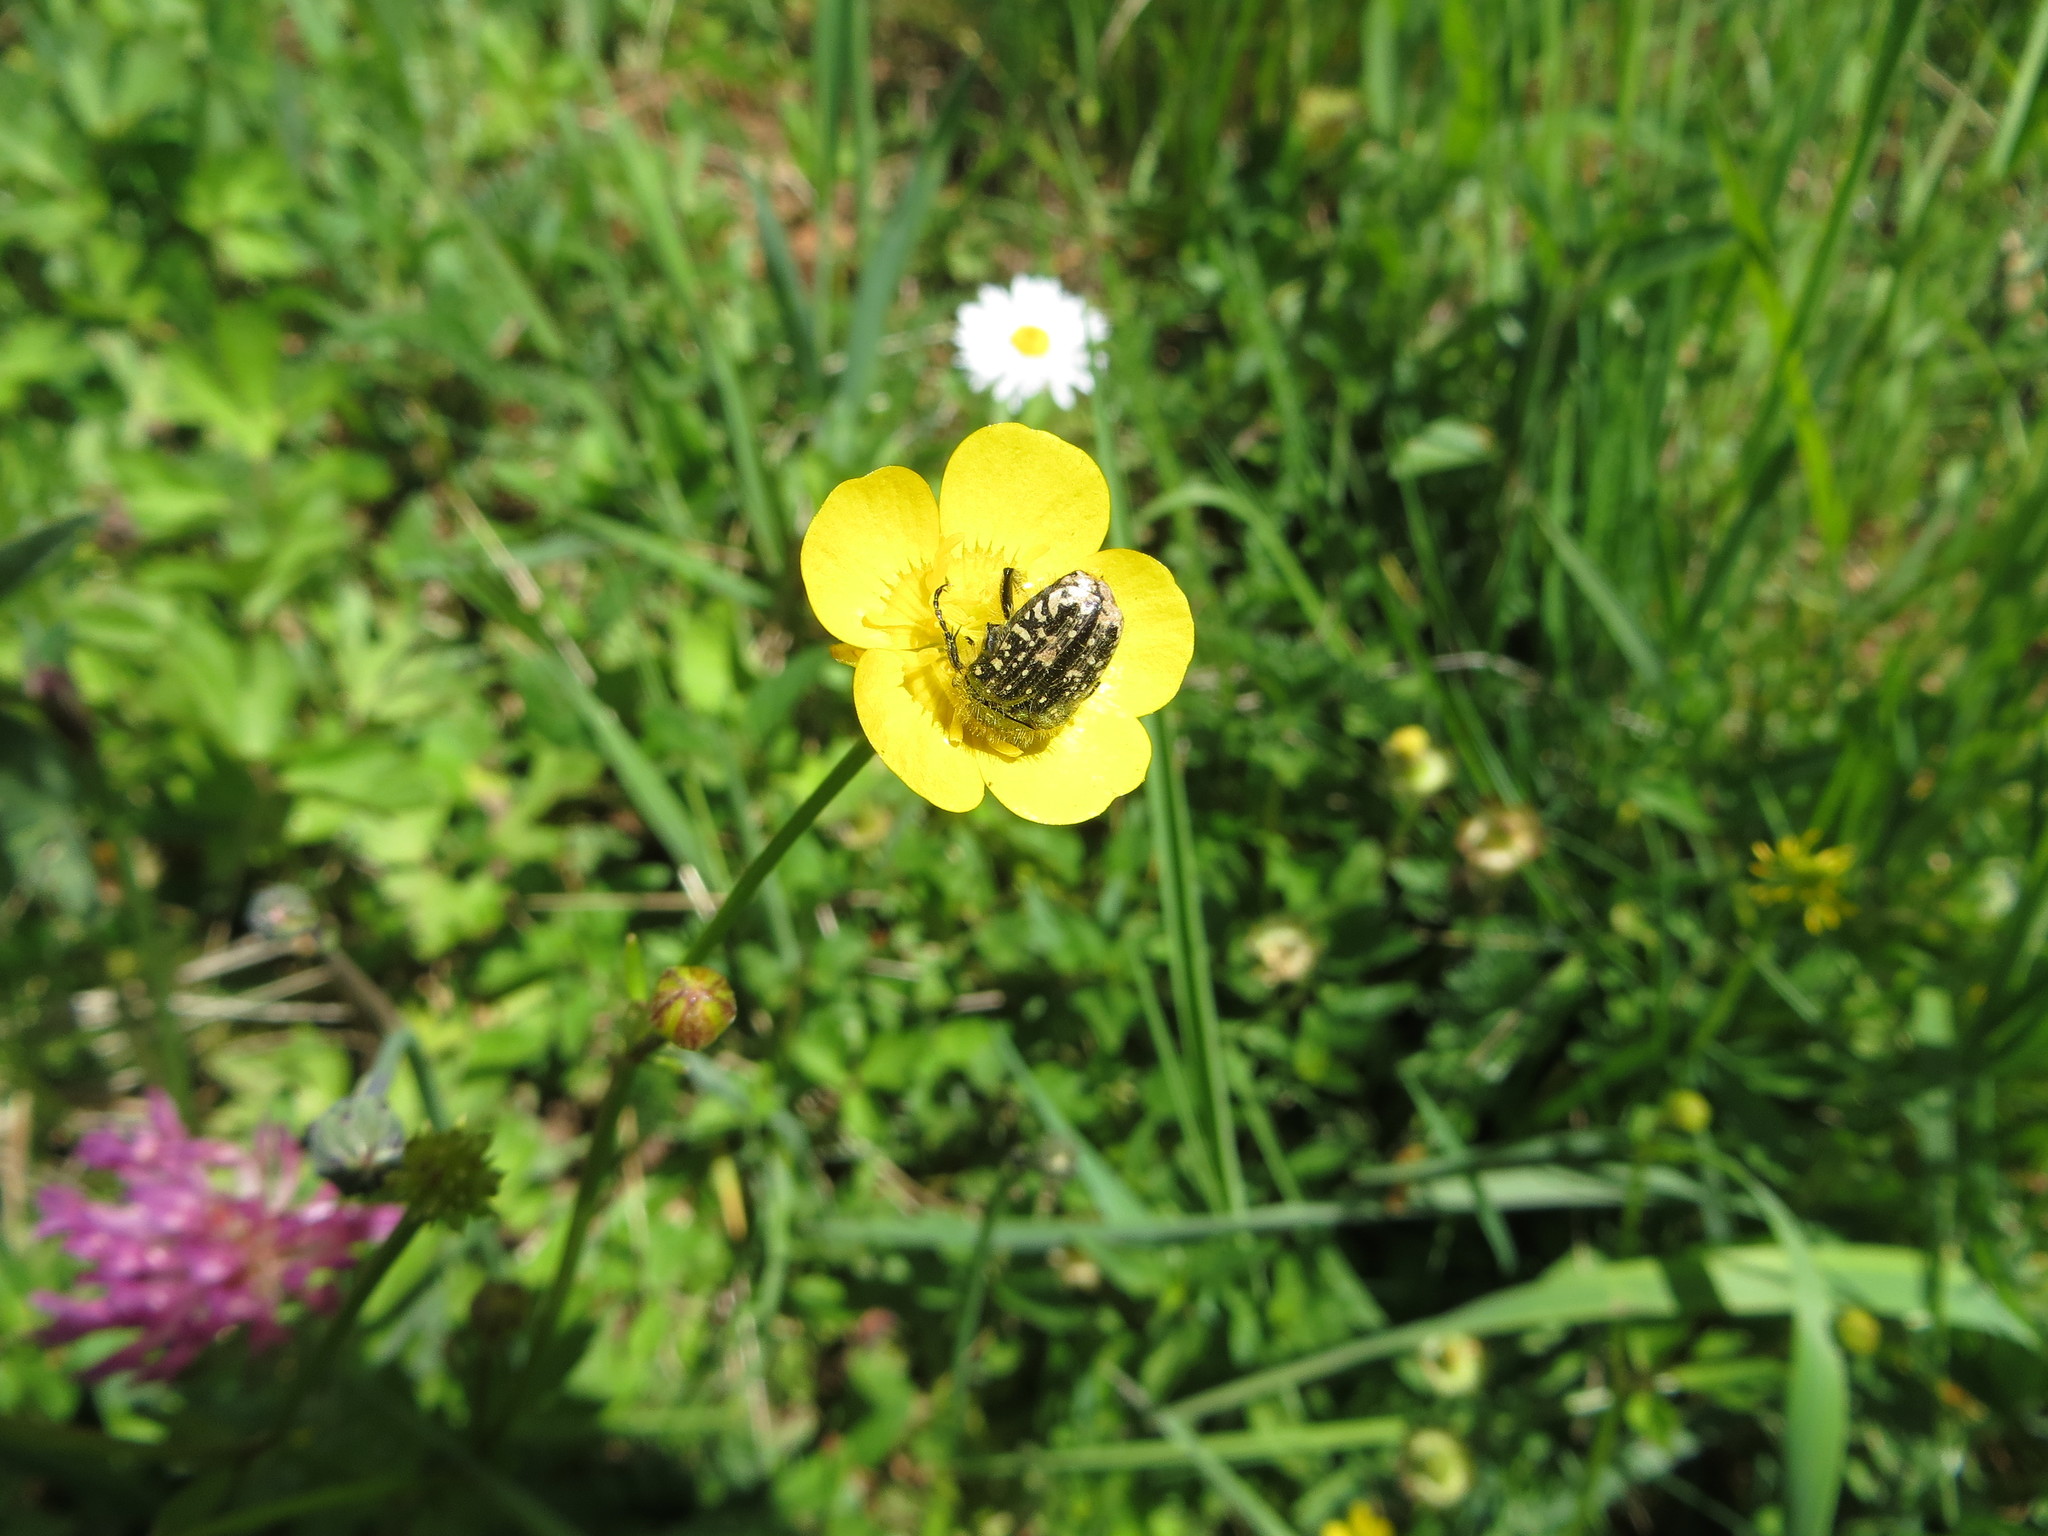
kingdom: Animalia
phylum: Arthropoda
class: Insecta
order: Coleoptera
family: Scarabaeidae
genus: Oxythyrea
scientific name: Oxythyrea funesta
